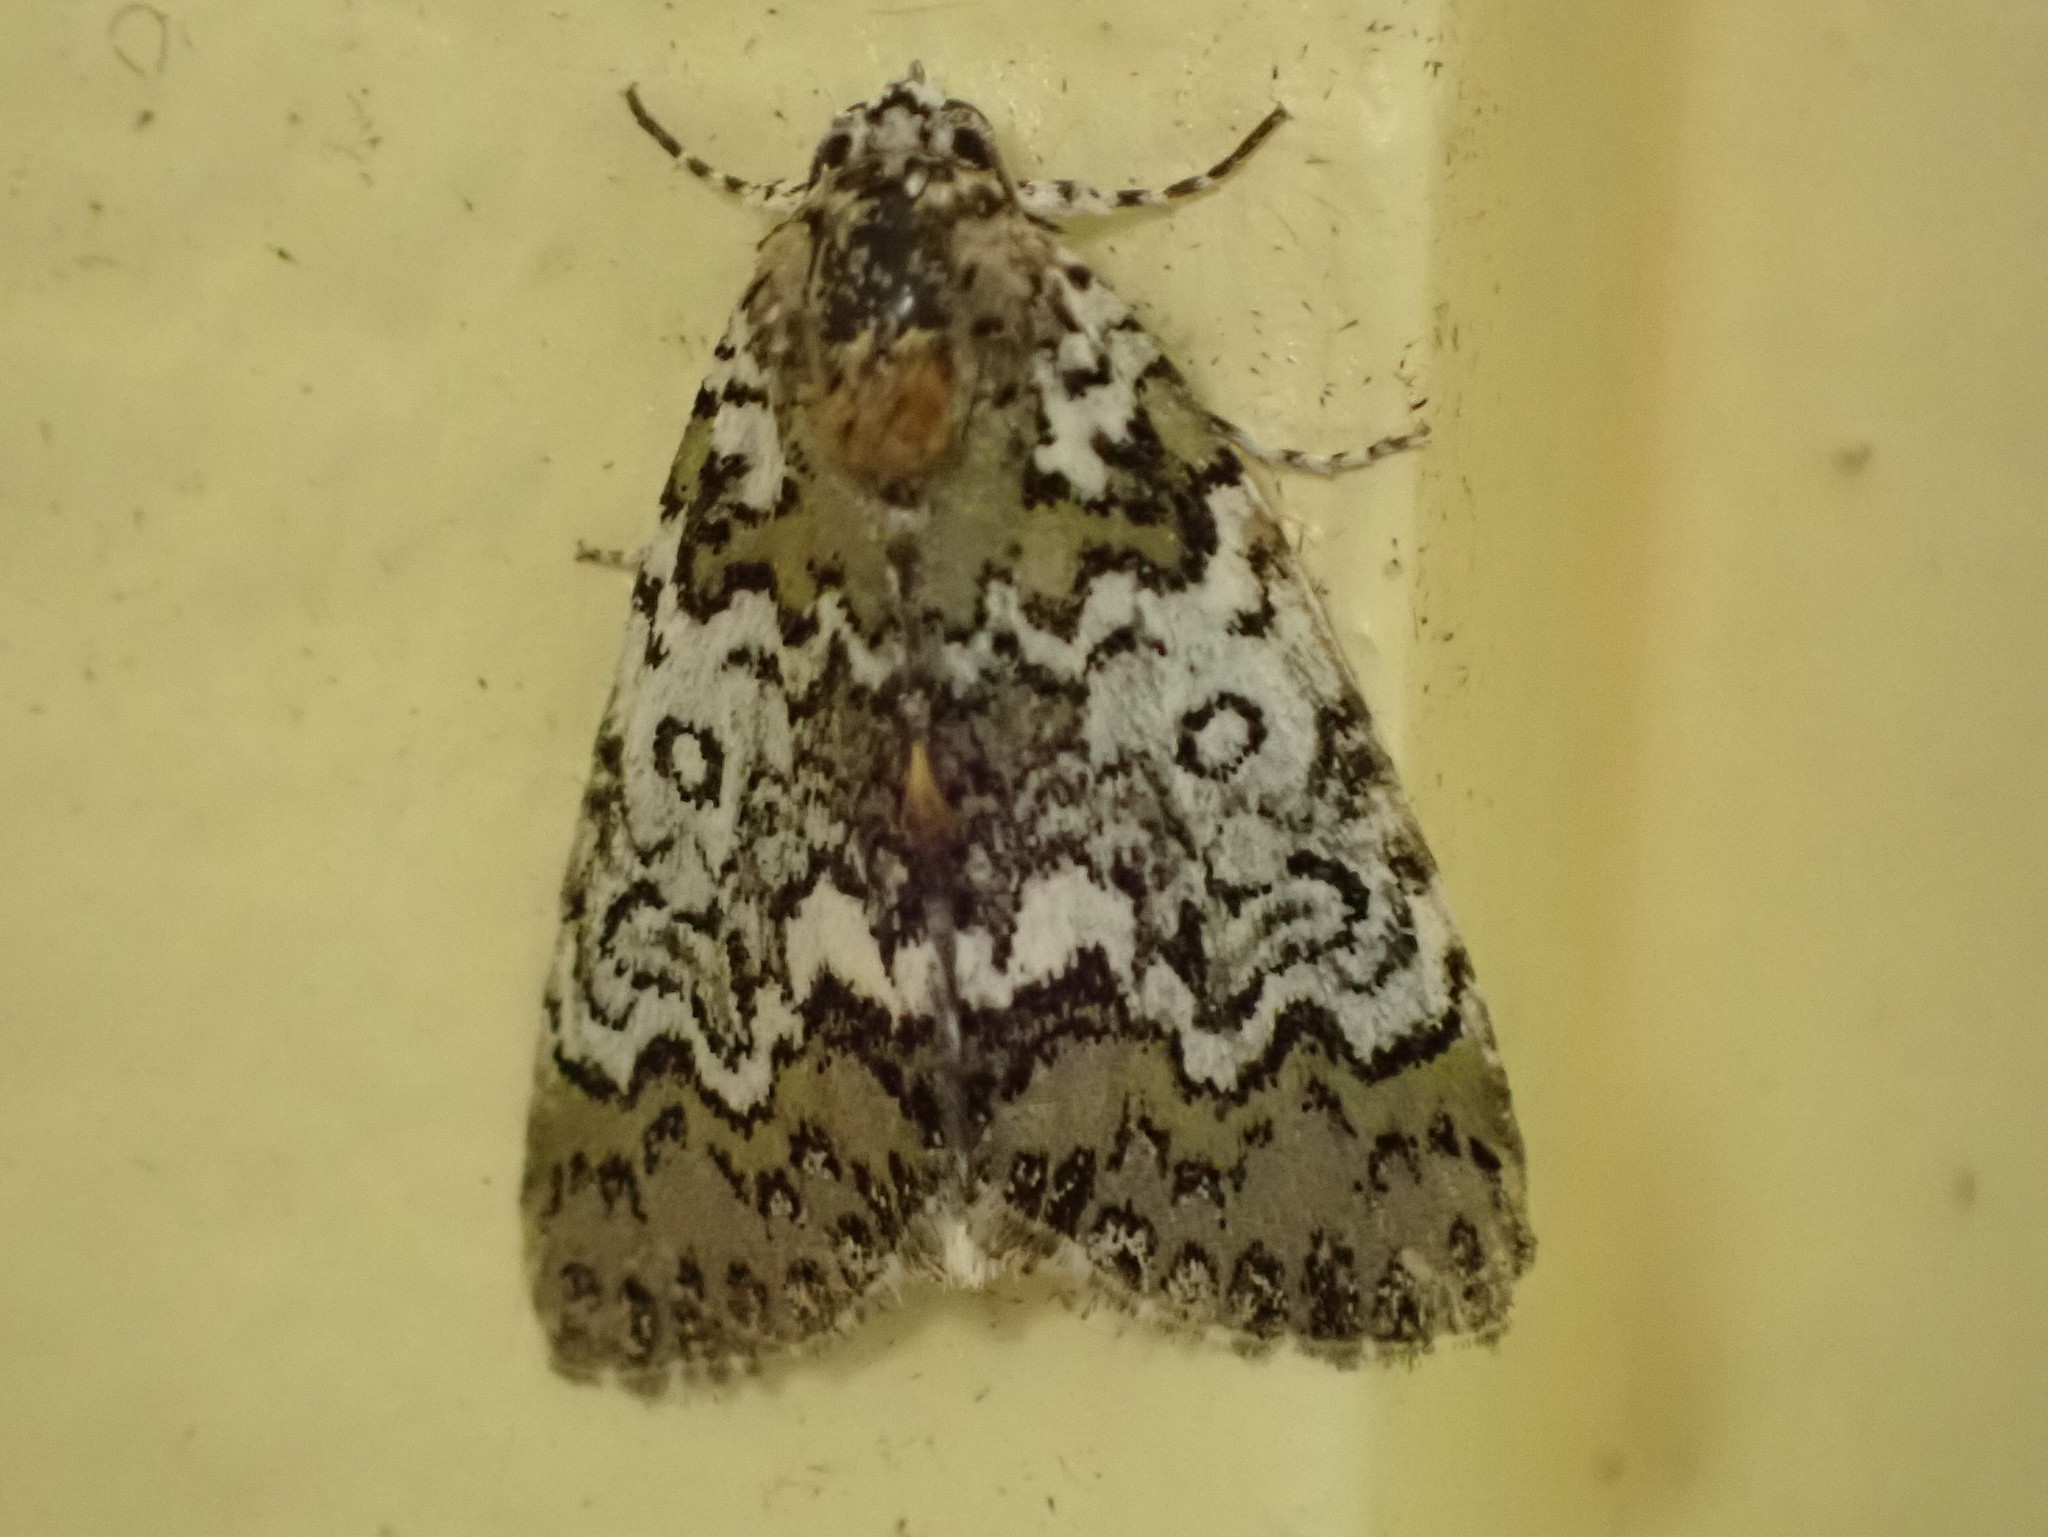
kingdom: Animalia
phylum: Arthropoda
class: Insecta
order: Lepidoptera
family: Noctuidae
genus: Cerma
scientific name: Cerma cora
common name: Bird dropping moth
